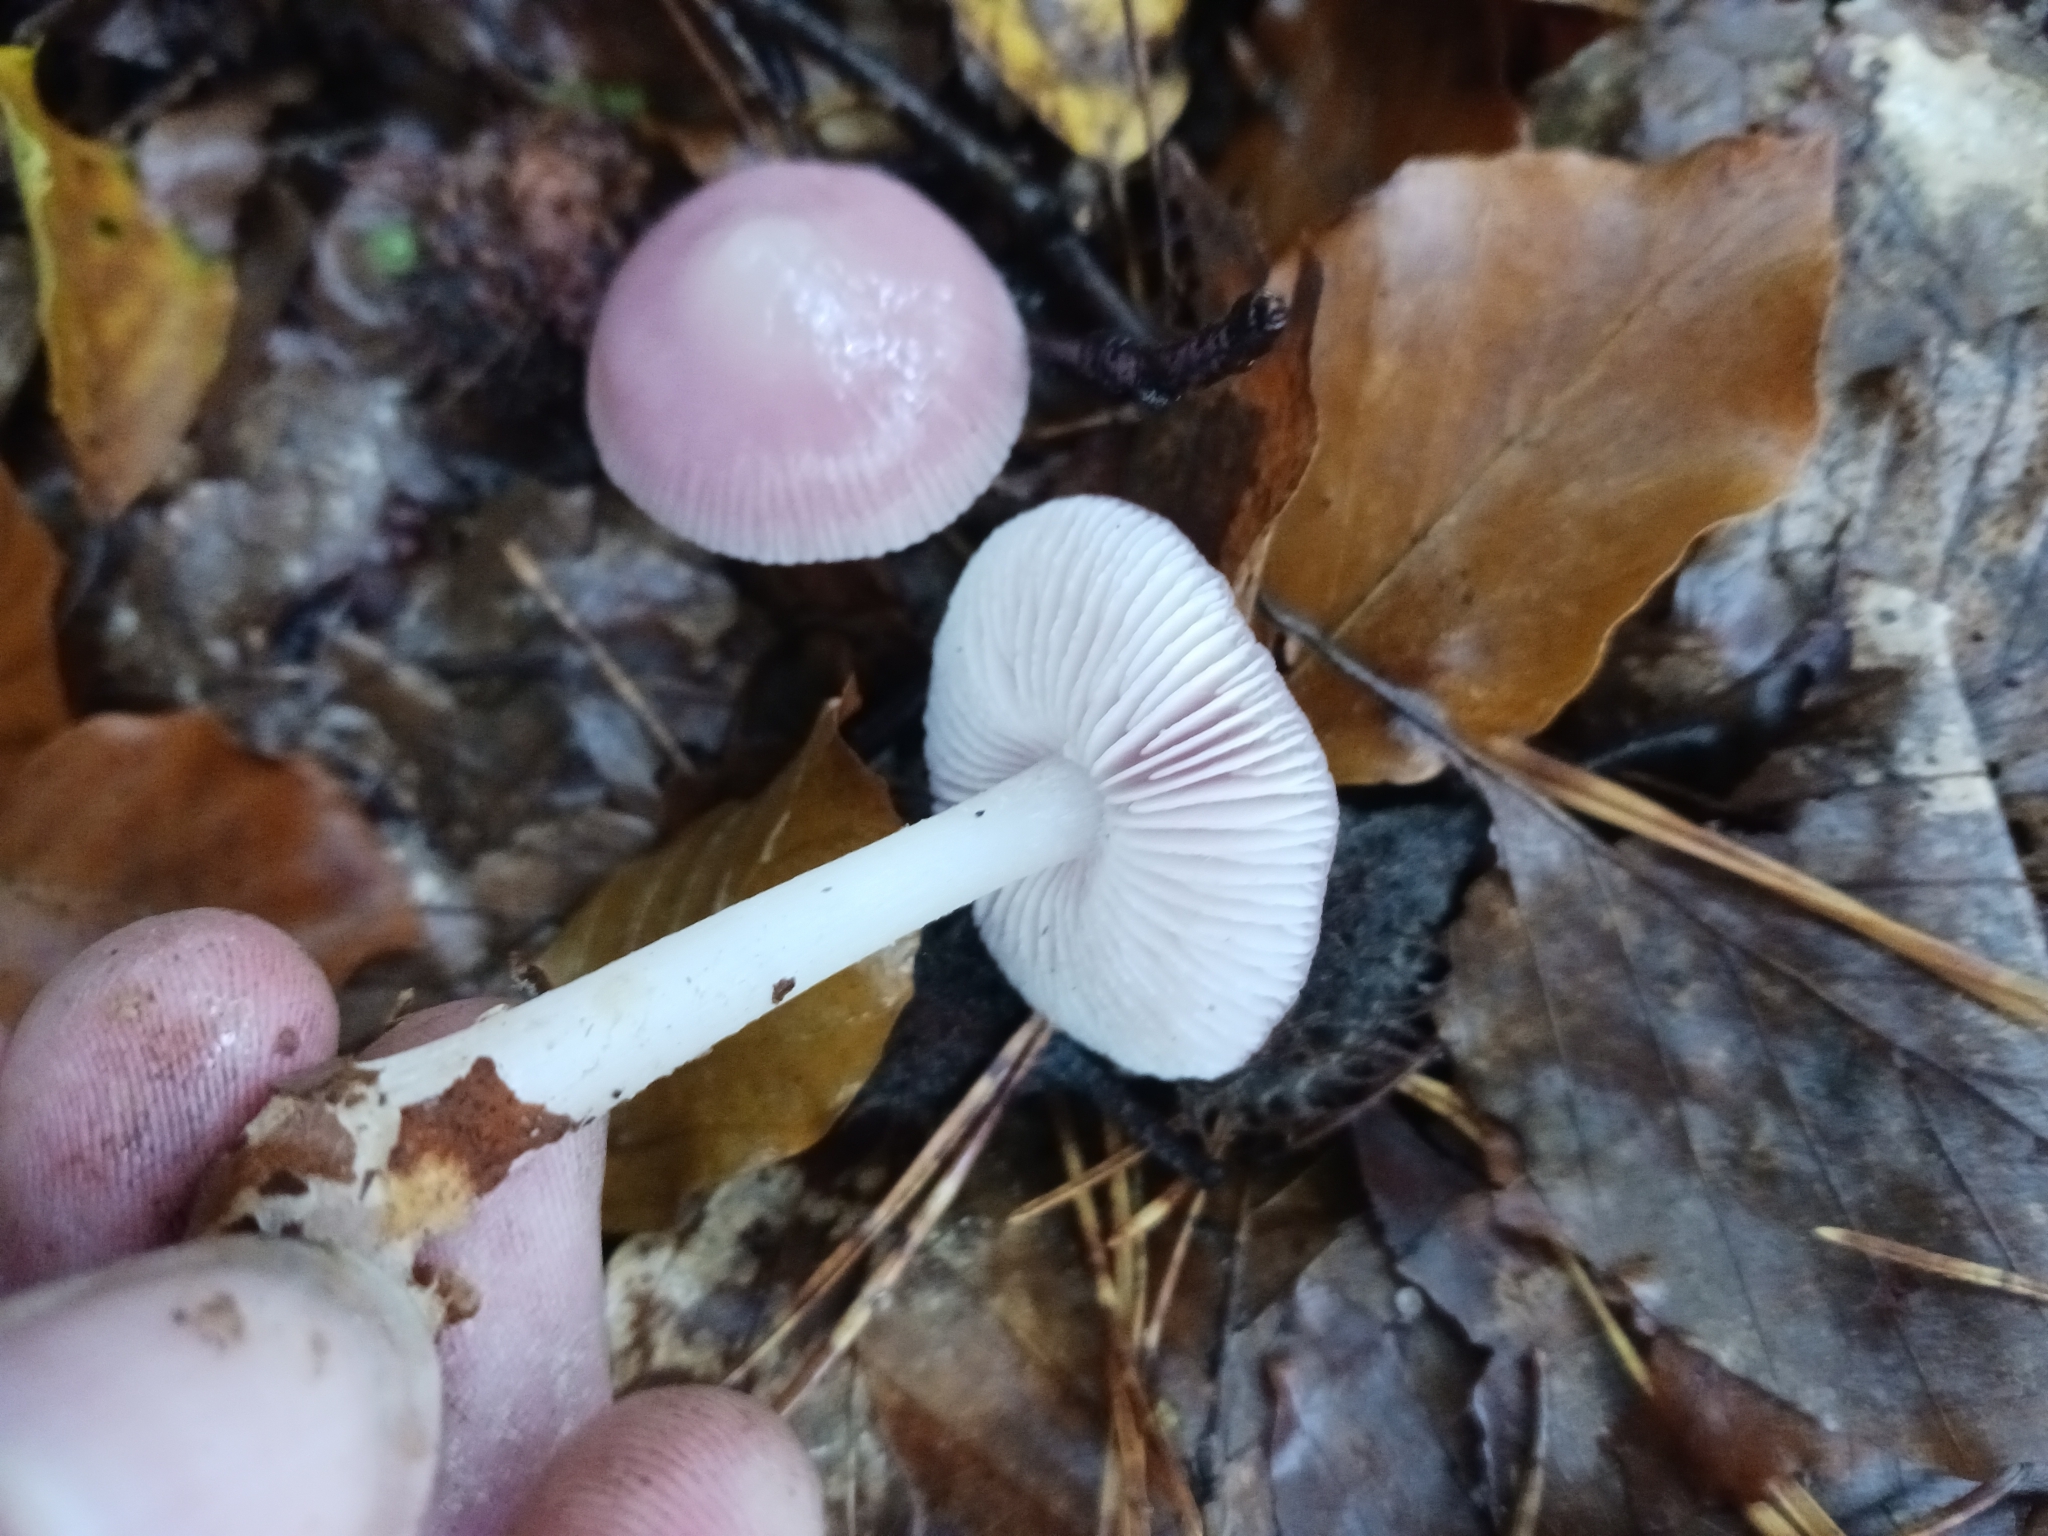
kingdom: Fungi
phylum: Basidiomycota
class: Agaricomycetes
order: Agaricales
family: Mycenaceae
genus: Mycena
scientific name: Mycena rosea
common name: Rosy bonnet
